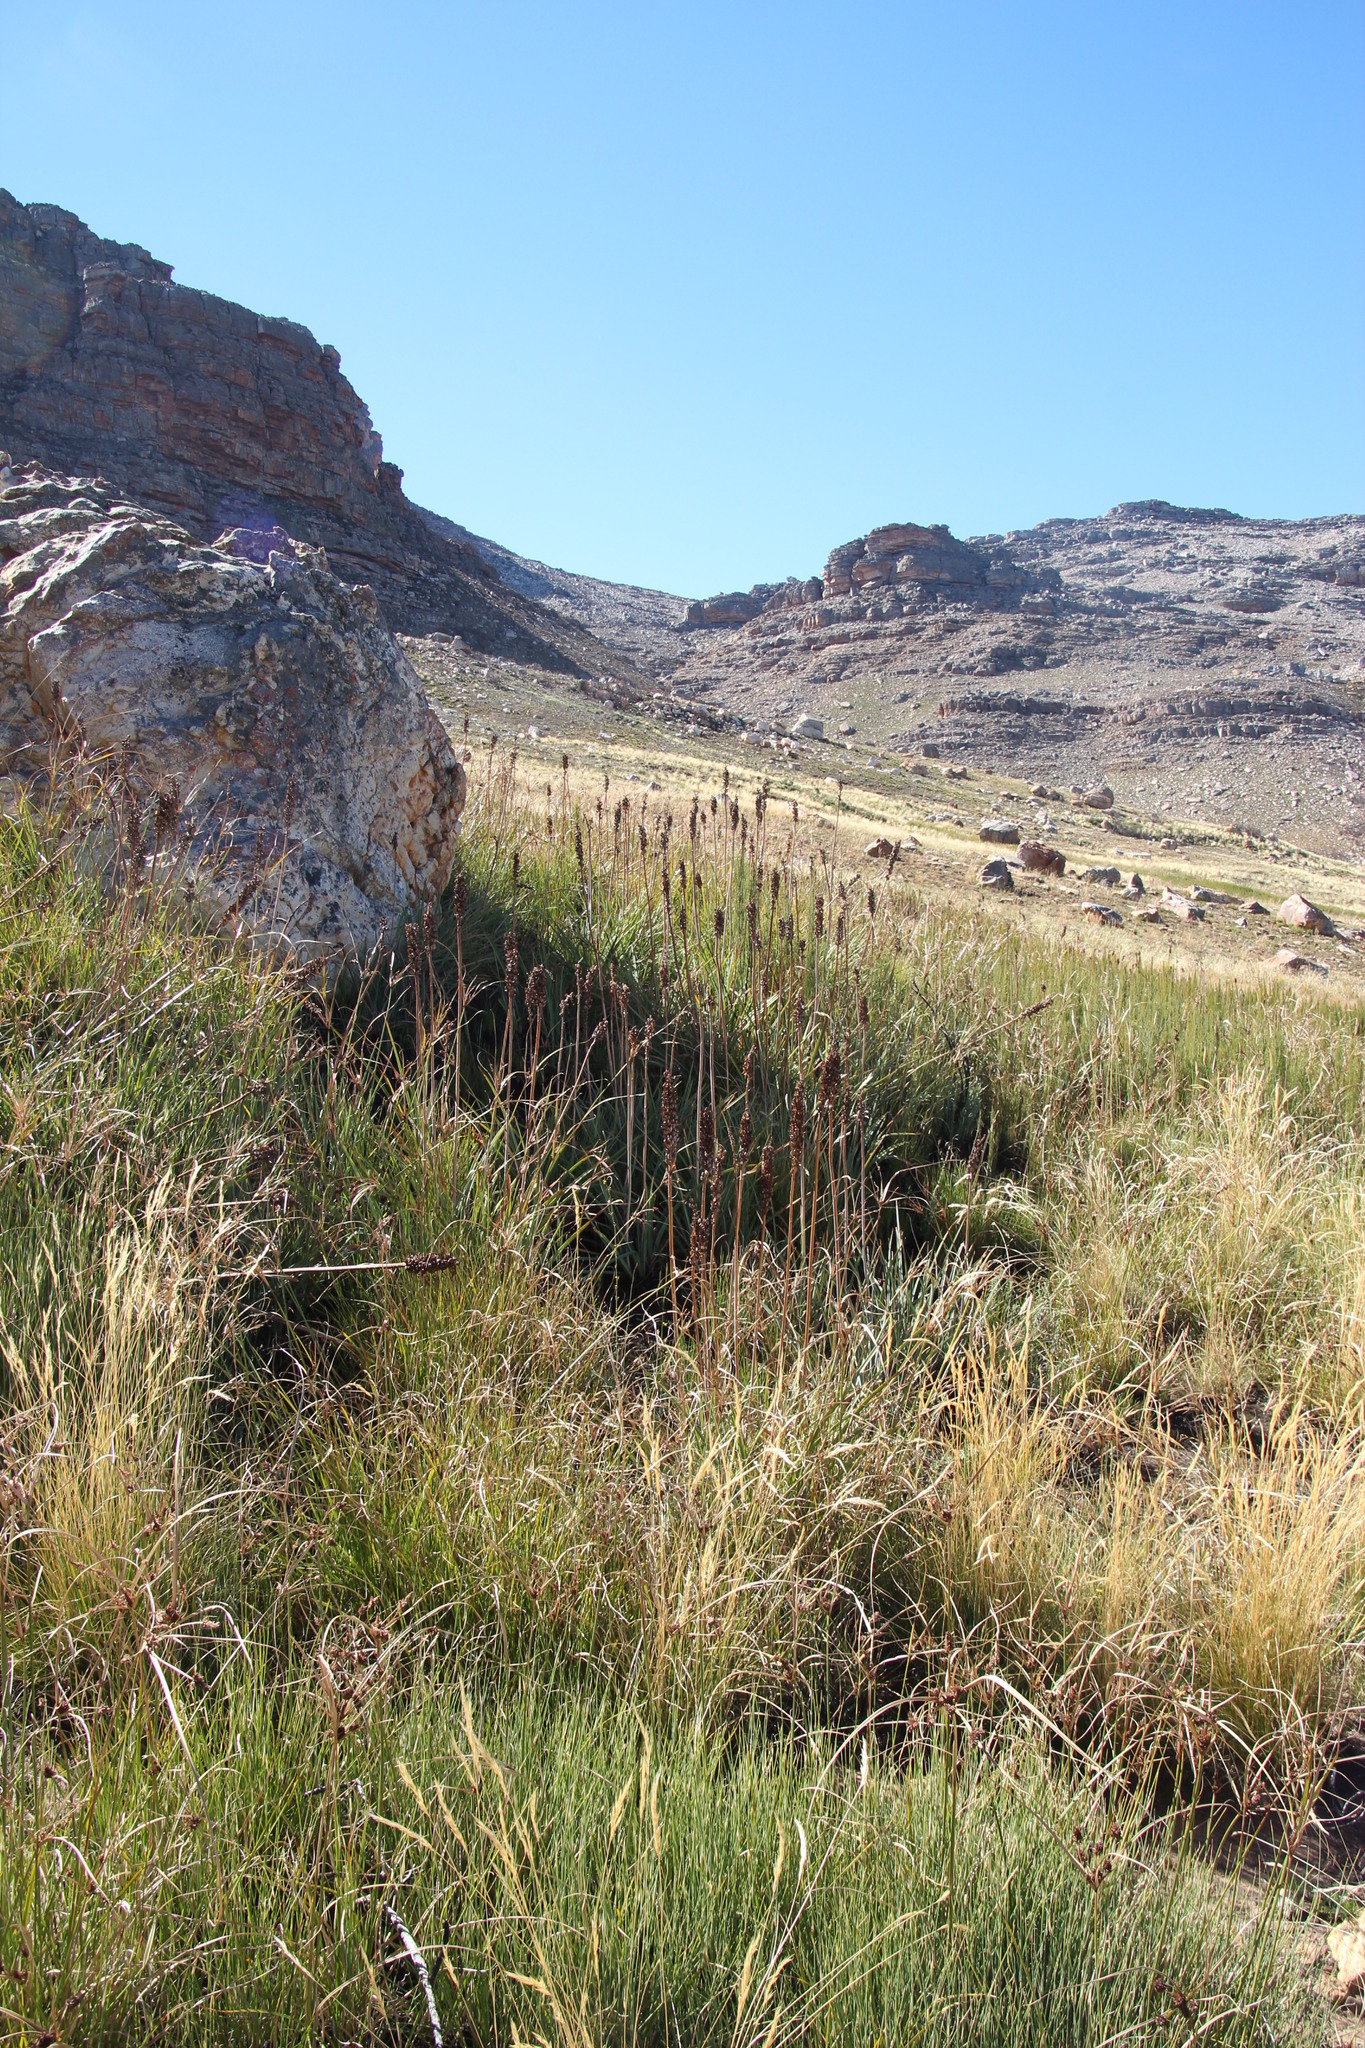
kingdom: Plantae
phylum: Tracheophyta
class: Liliopsida
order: Asparagales
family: Asphodelaceae
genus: Kniphofia
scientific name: Kniphofia uvaria
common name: Red-hot-poker
